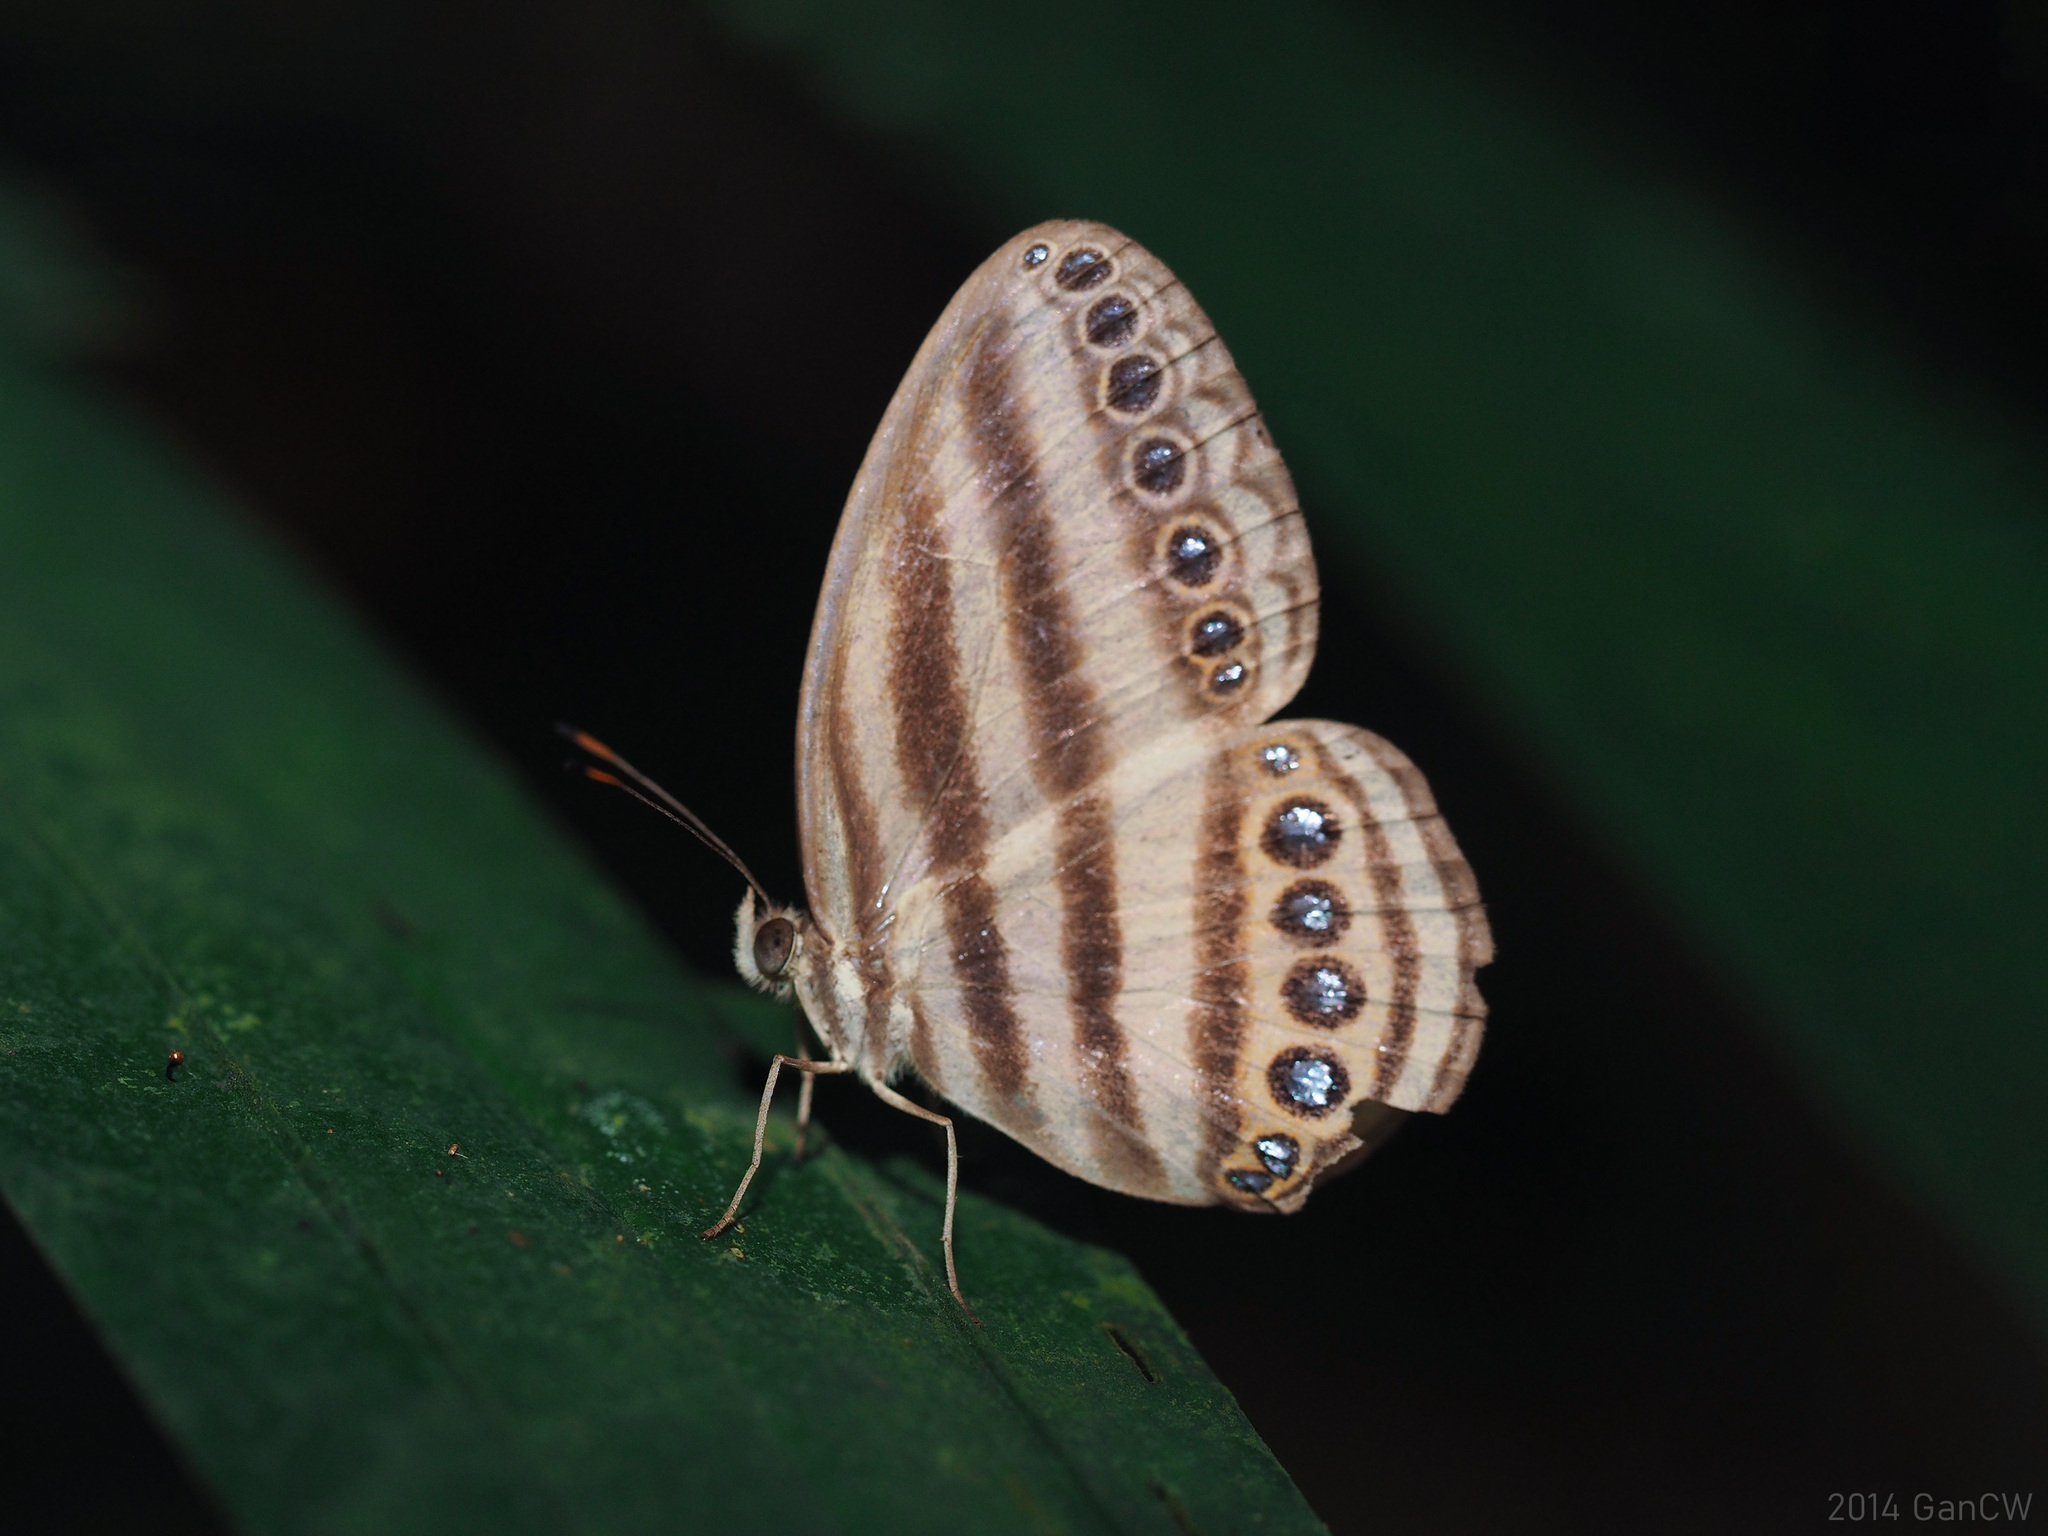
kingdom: Animalia
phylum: Arthropoda
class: Insecta
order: Lepidoptera
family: Nymphalidae
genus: Ragadia
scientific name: Ragadia makuta
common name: Striped ringlet
